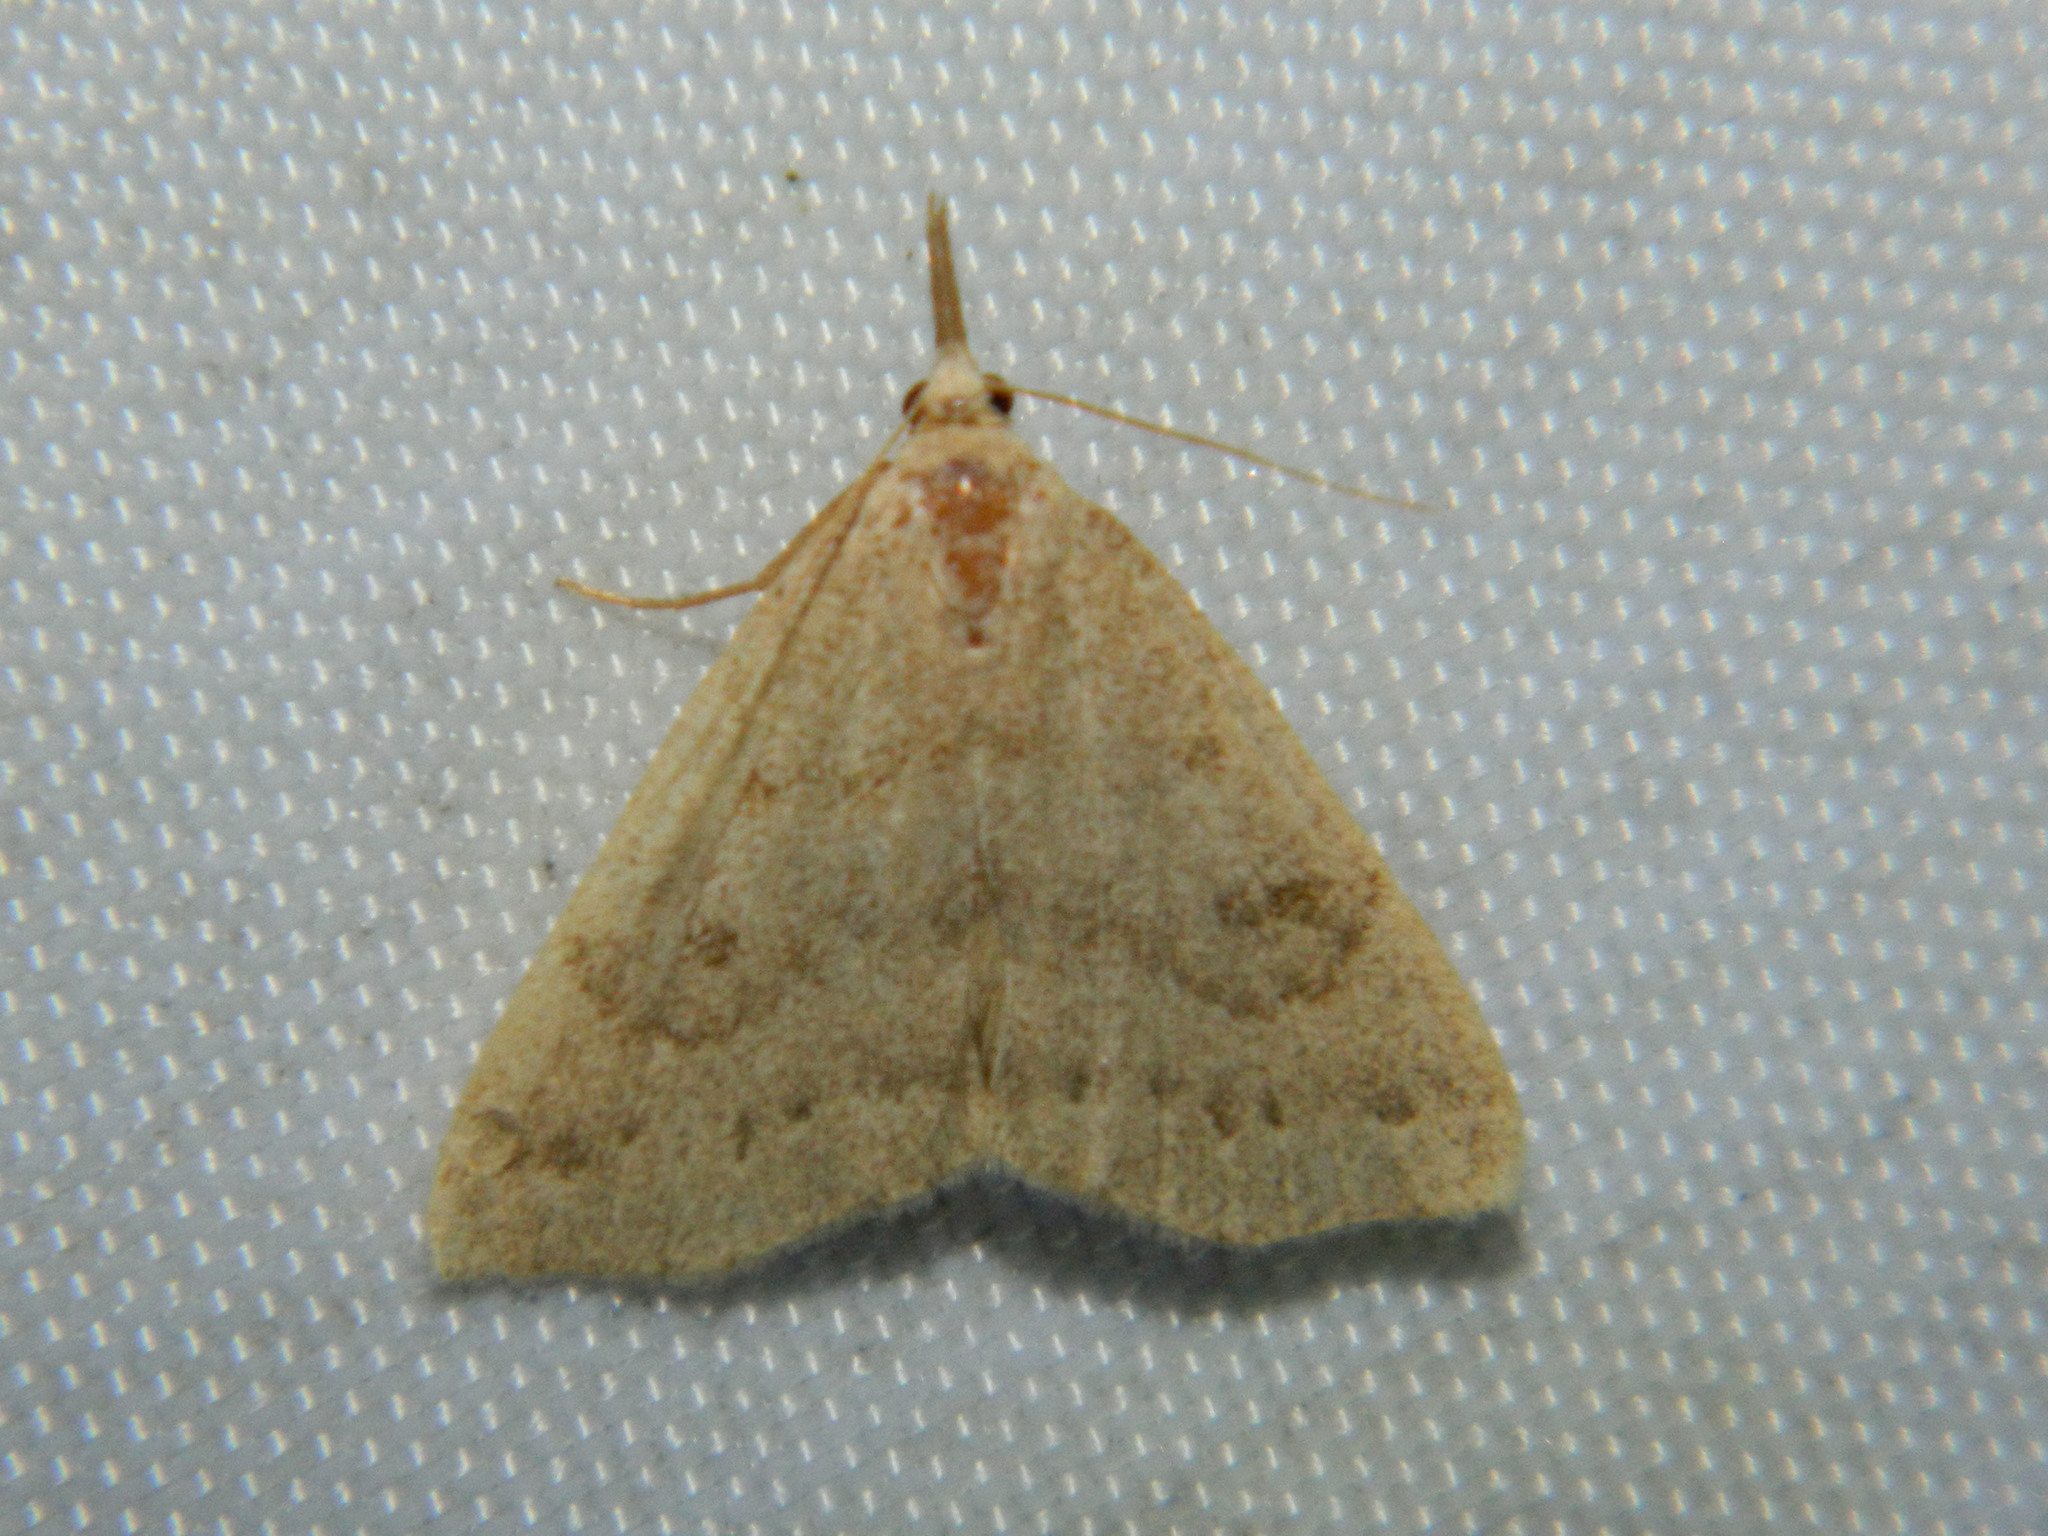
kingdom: Animalia
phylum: Arthropoda
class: Insecta
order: Lepidoptera
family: Erebidae
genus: Macrochilo
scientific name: Macrochilo morbidalis
